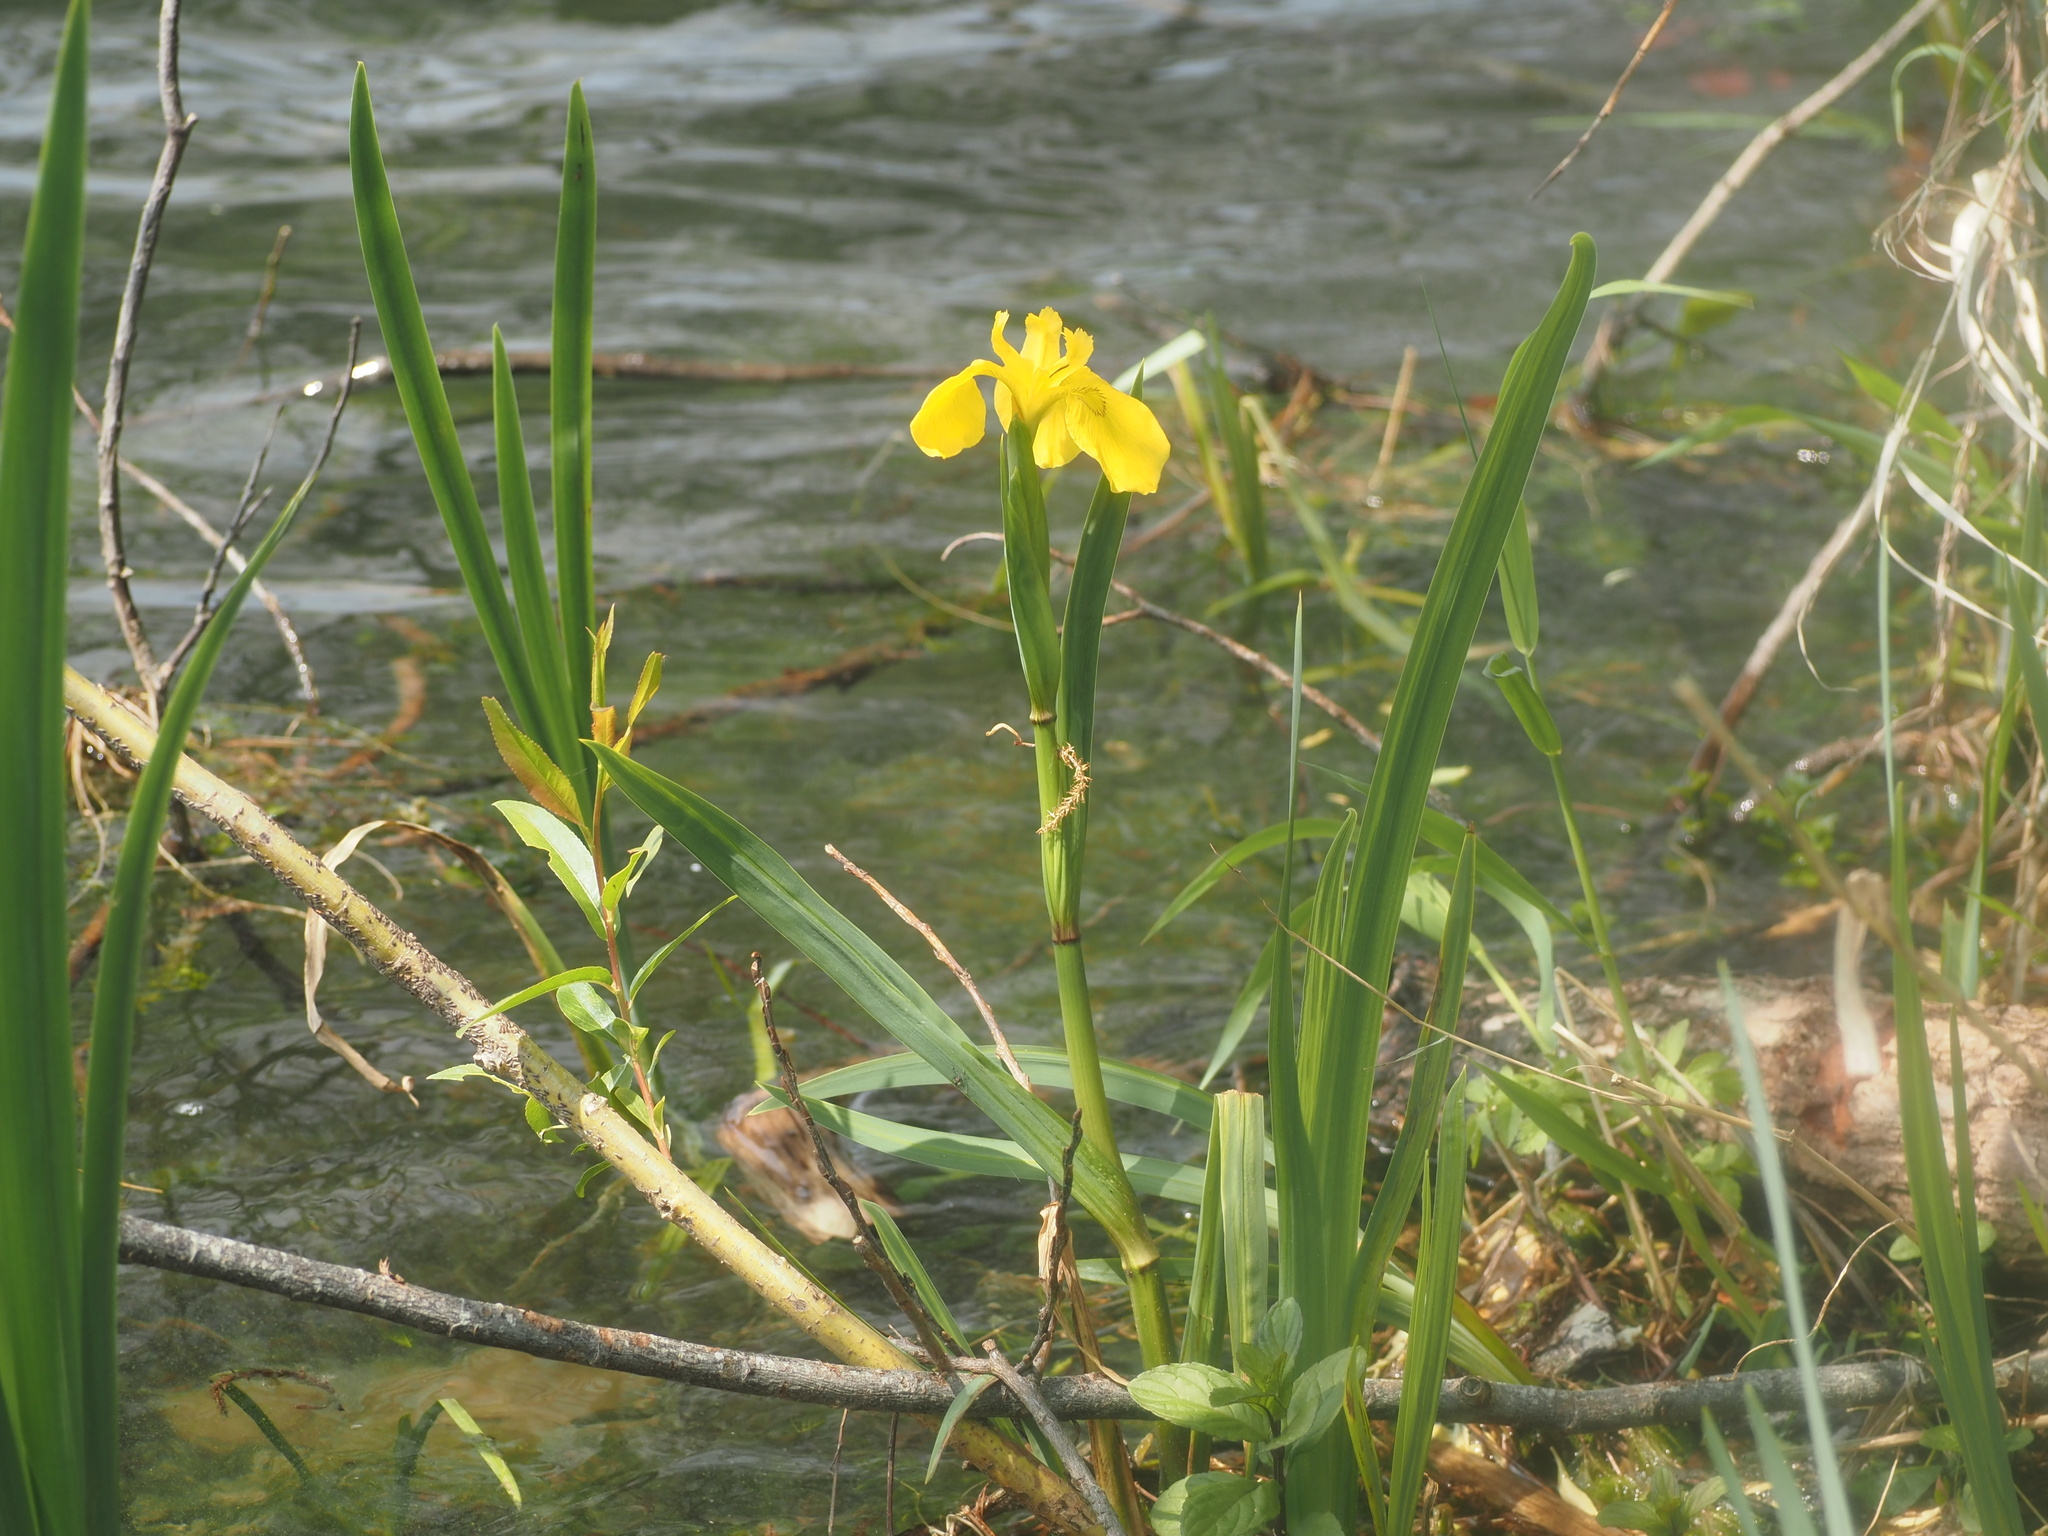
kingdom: Plantae
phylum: Tracheophyta
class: Liliopsida
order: Asparagales
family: Iridaceae
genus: Iris
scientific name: Iris pseudacorus
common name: Yellow flag
